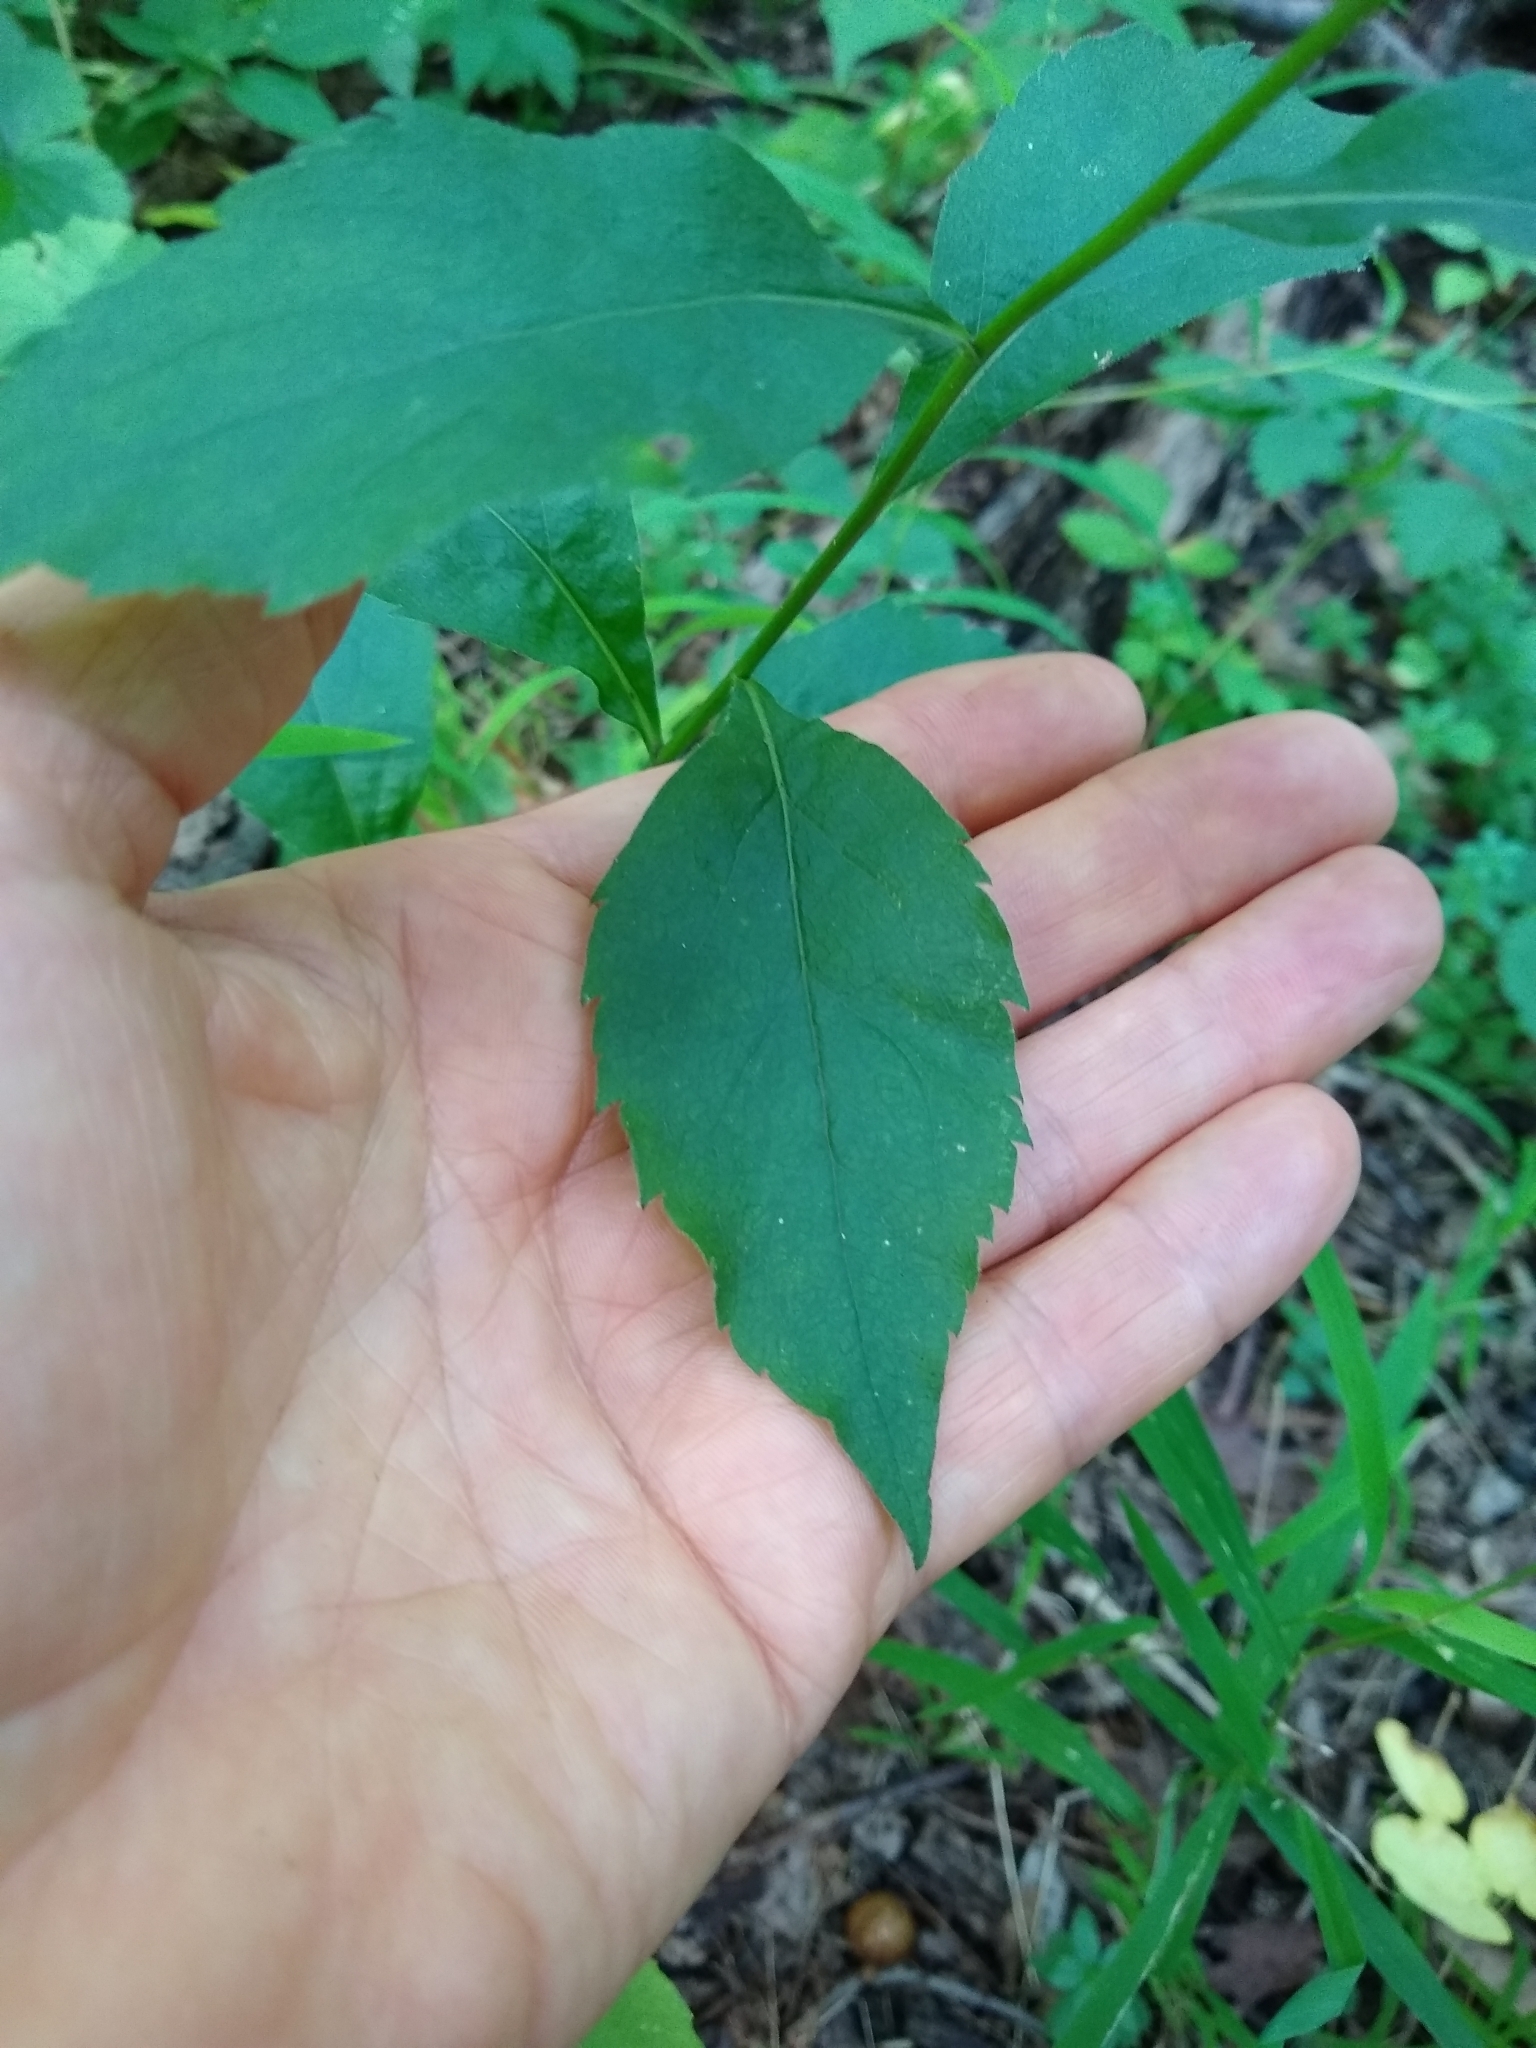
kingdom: Plantae
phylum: Tracheophyta
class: Magnoliopsida
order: Asterales
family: Asteraceae
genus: Solidago
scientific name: Solidago ulmifolia
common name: Elm-leaf goldenrod
